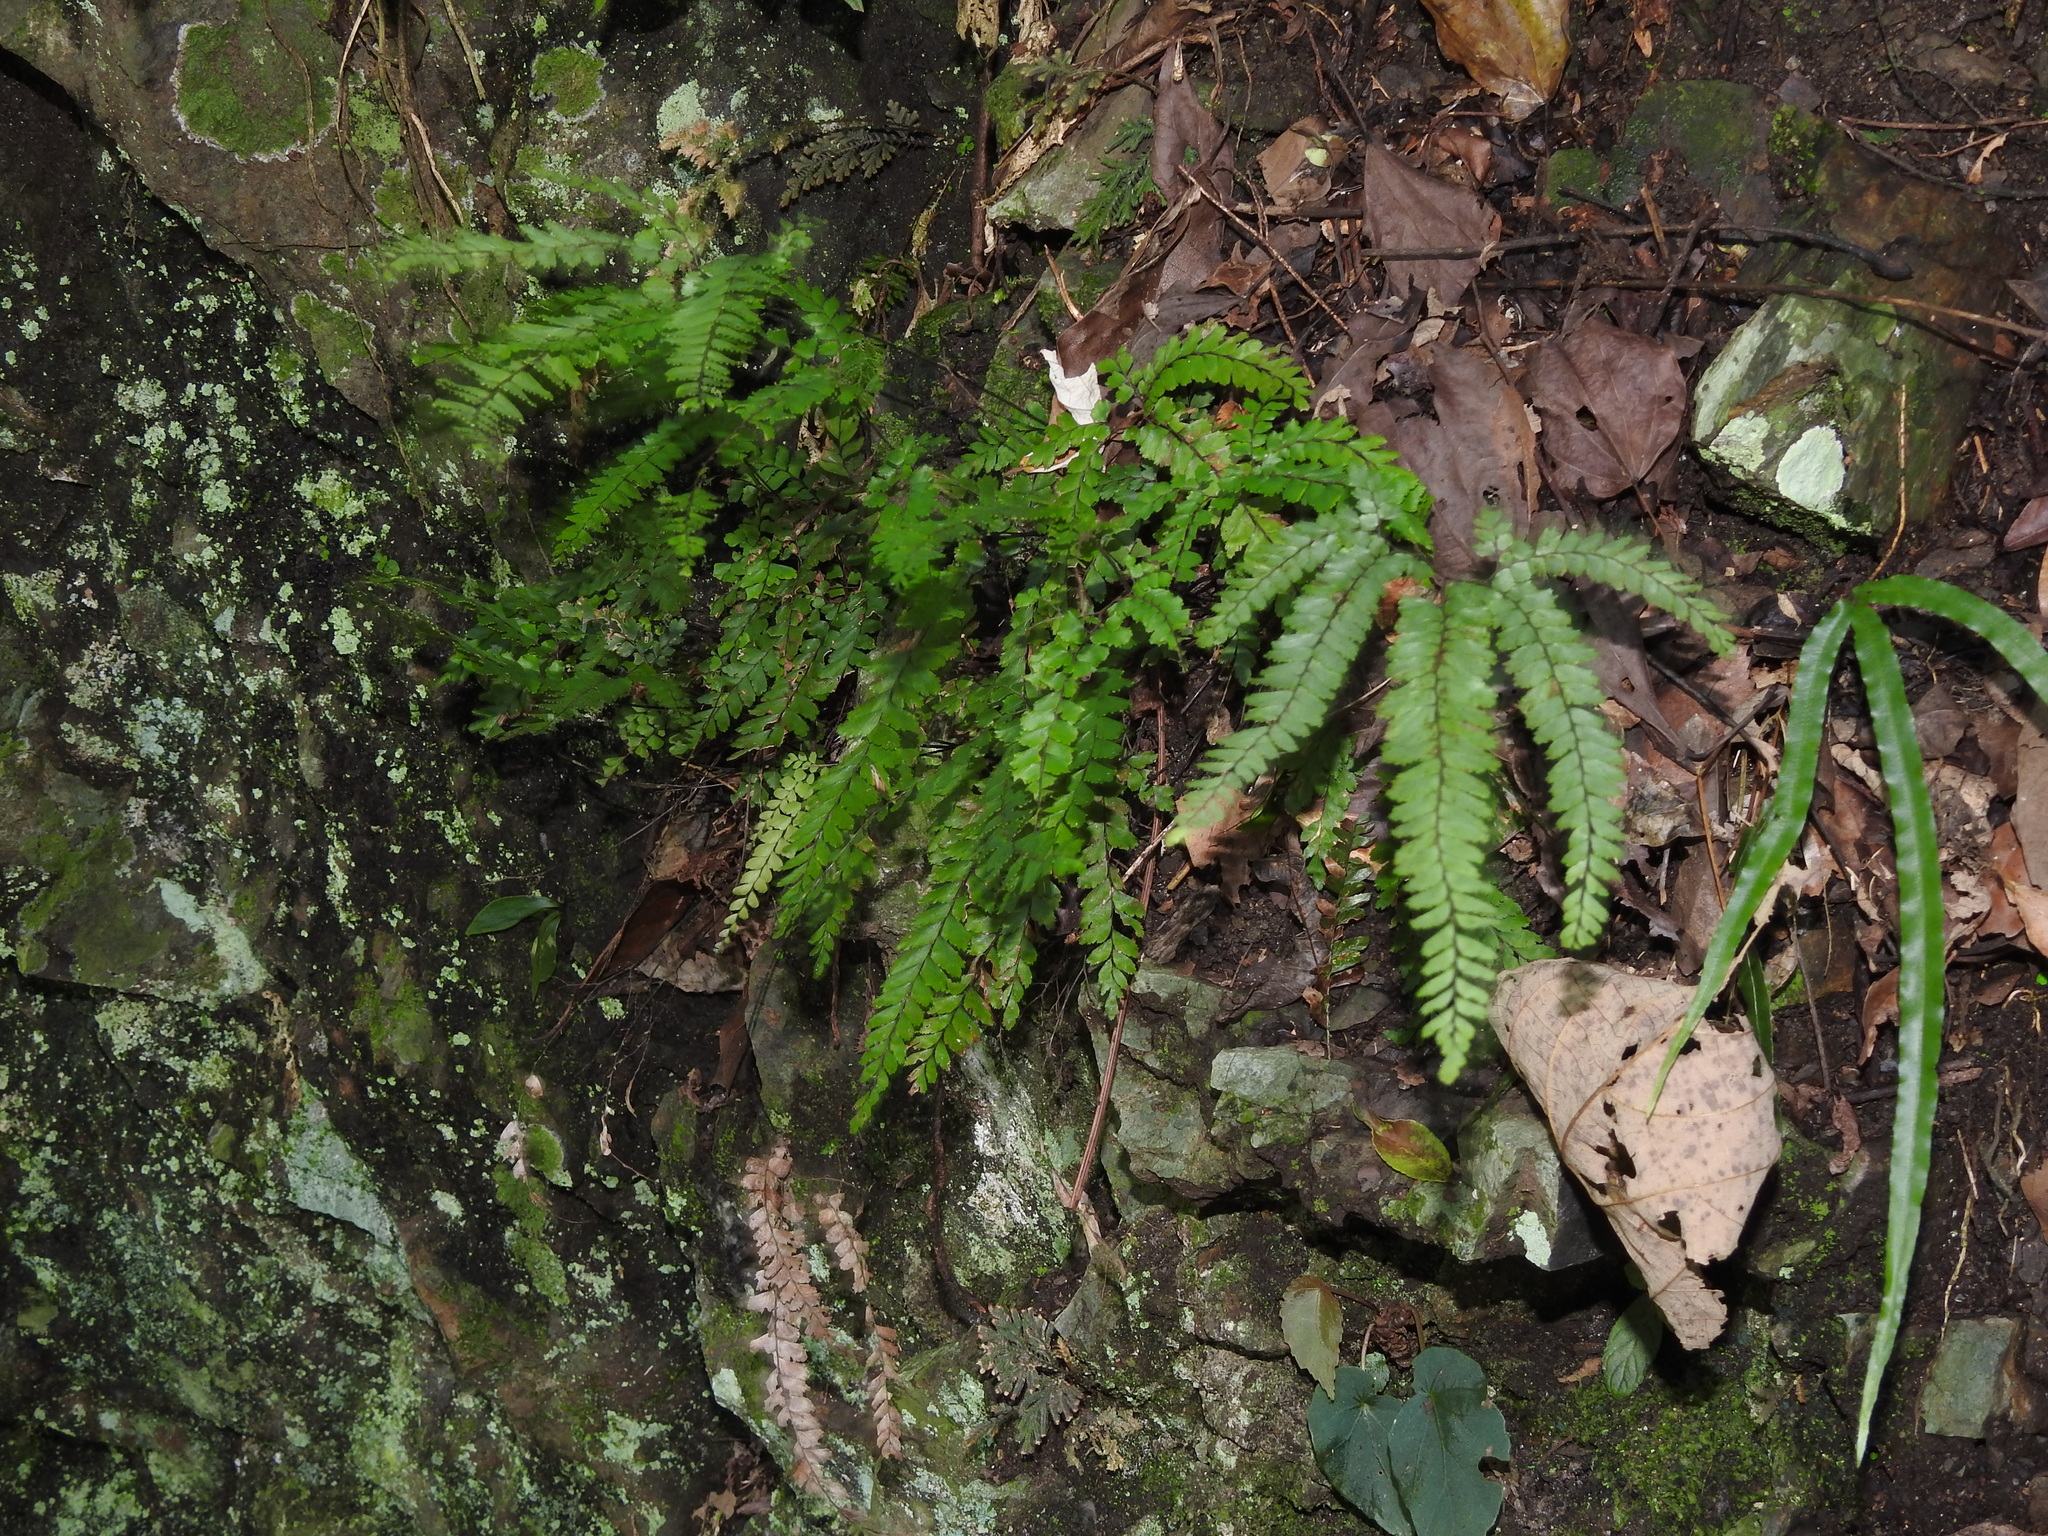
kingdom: Plantae
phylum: Tracheophyta
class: Polypodiopsida
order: Polypodiales
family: Pteridaceae
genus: Adiantum
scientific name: Adiantum hispidulum
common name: Rough maidenhair
